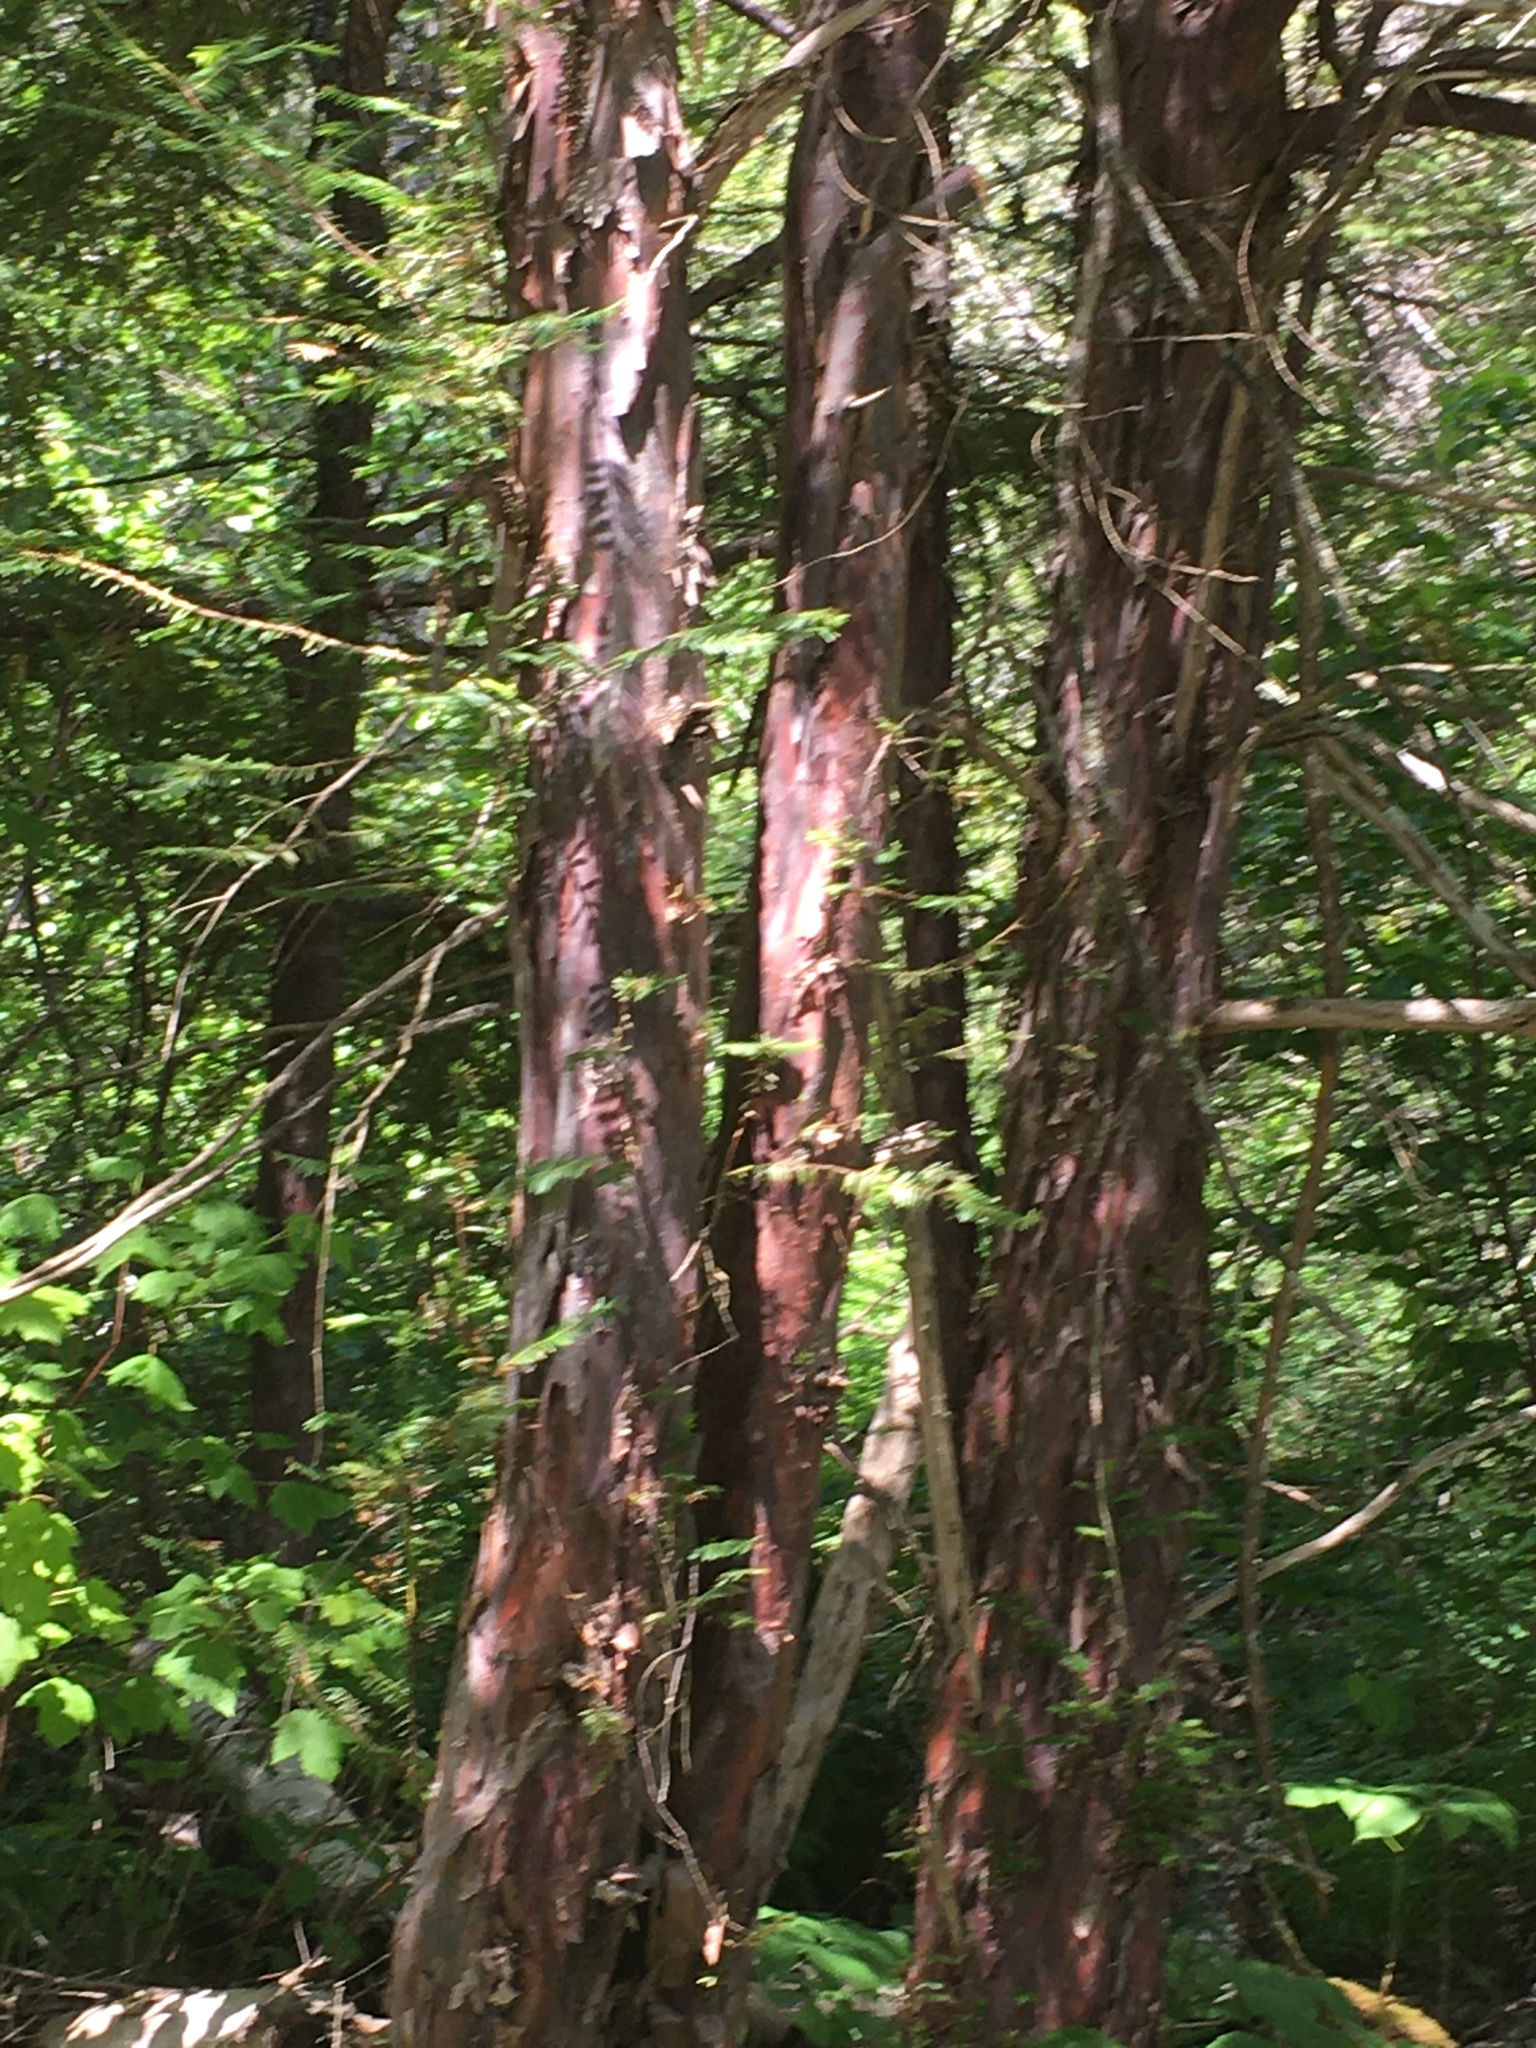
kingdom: Plantae
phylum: Tracheophyta
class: Pinopsida
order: Pinales
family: Taxaceae
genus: Taxus
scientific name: Taxus brevifolia
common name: Pacific yew
